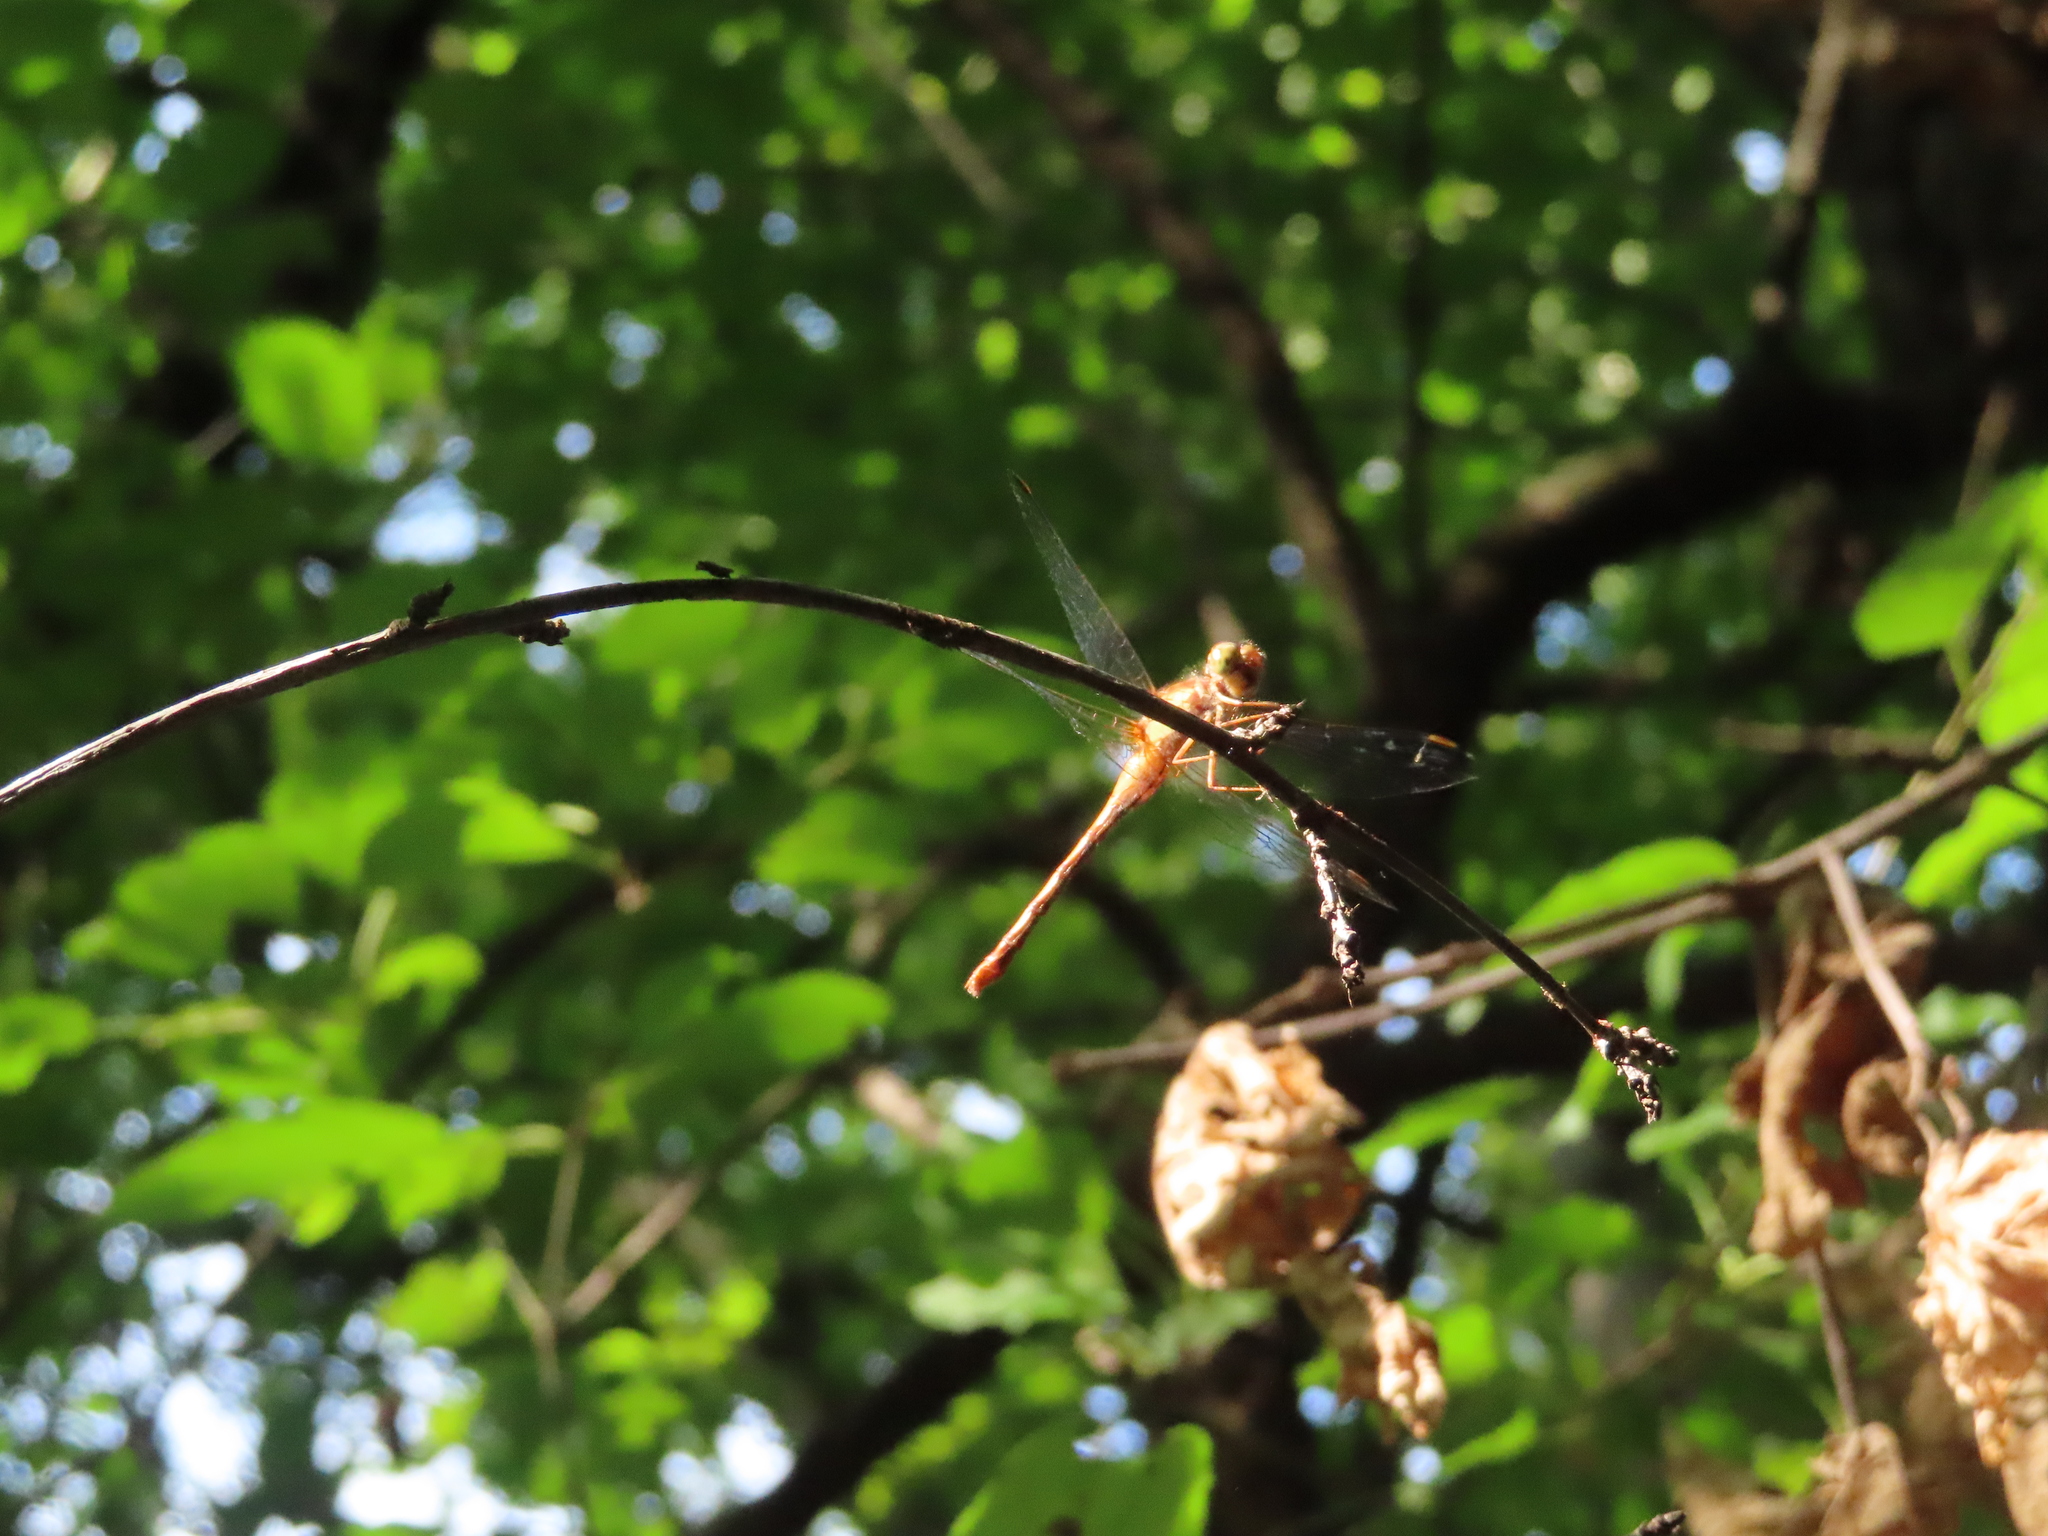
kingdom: Animalia
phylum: Arthropoda
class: Insecta
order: Odonata
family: Libellulidae
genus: Sympetrum
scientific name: Sympetrum vicinum
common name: Autumn meadowhawk
